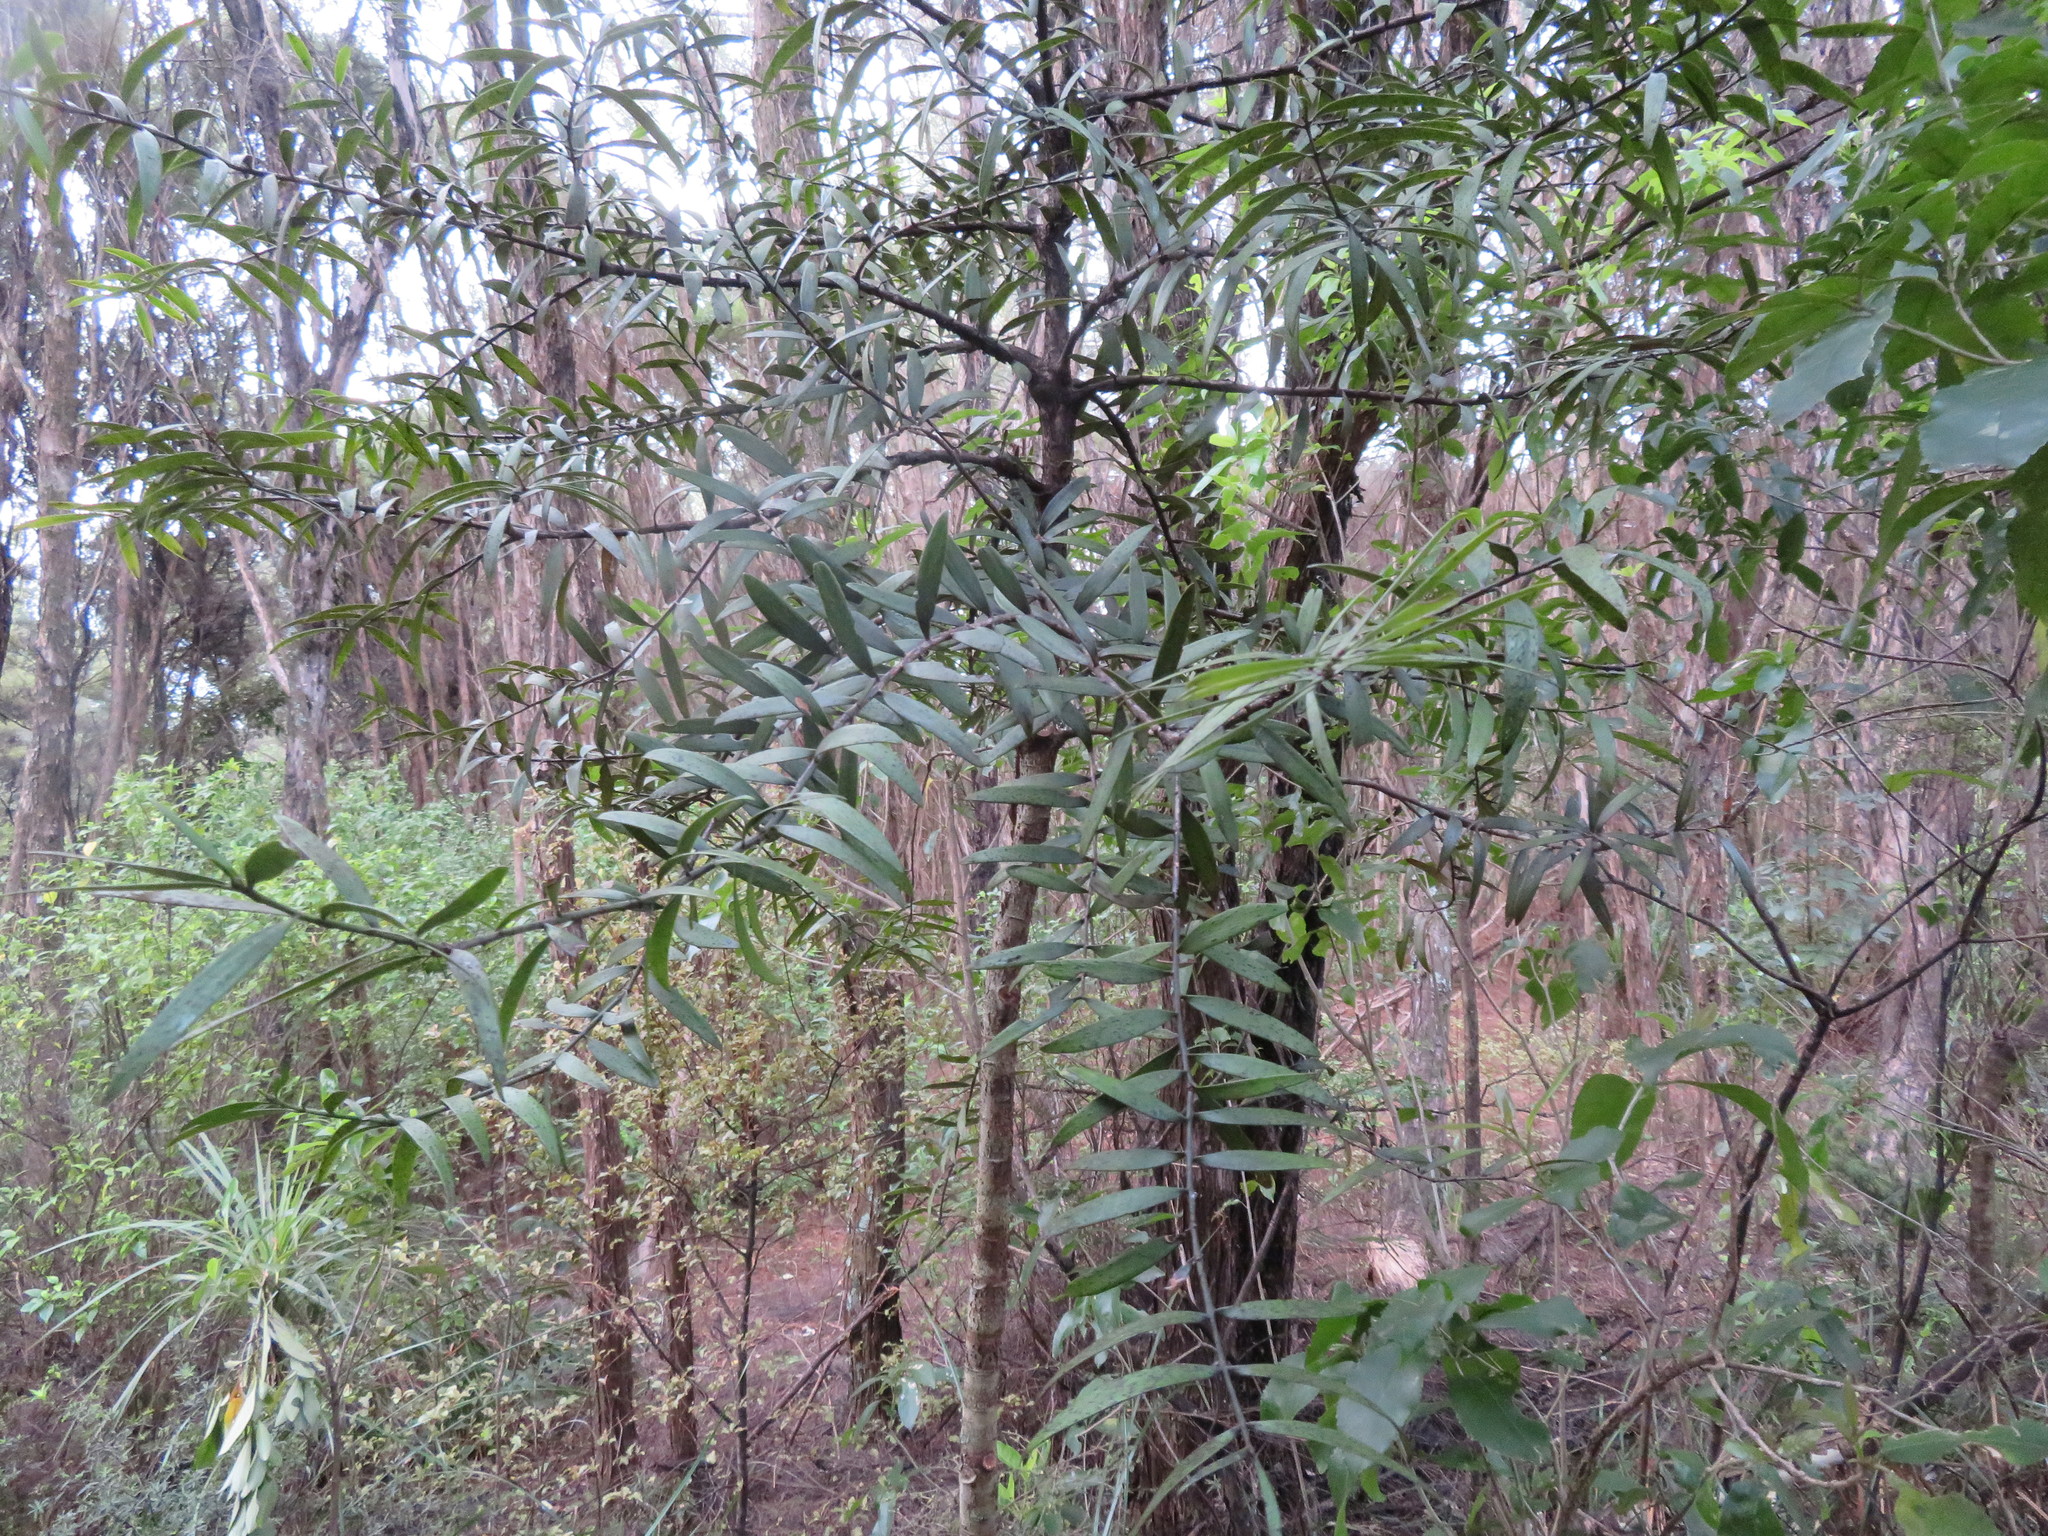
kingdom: Plantae
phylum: Tracheophyta
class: Pinopsida
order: Pinales
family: Araucariaceae
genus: Agathis
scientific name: Agathis australis
